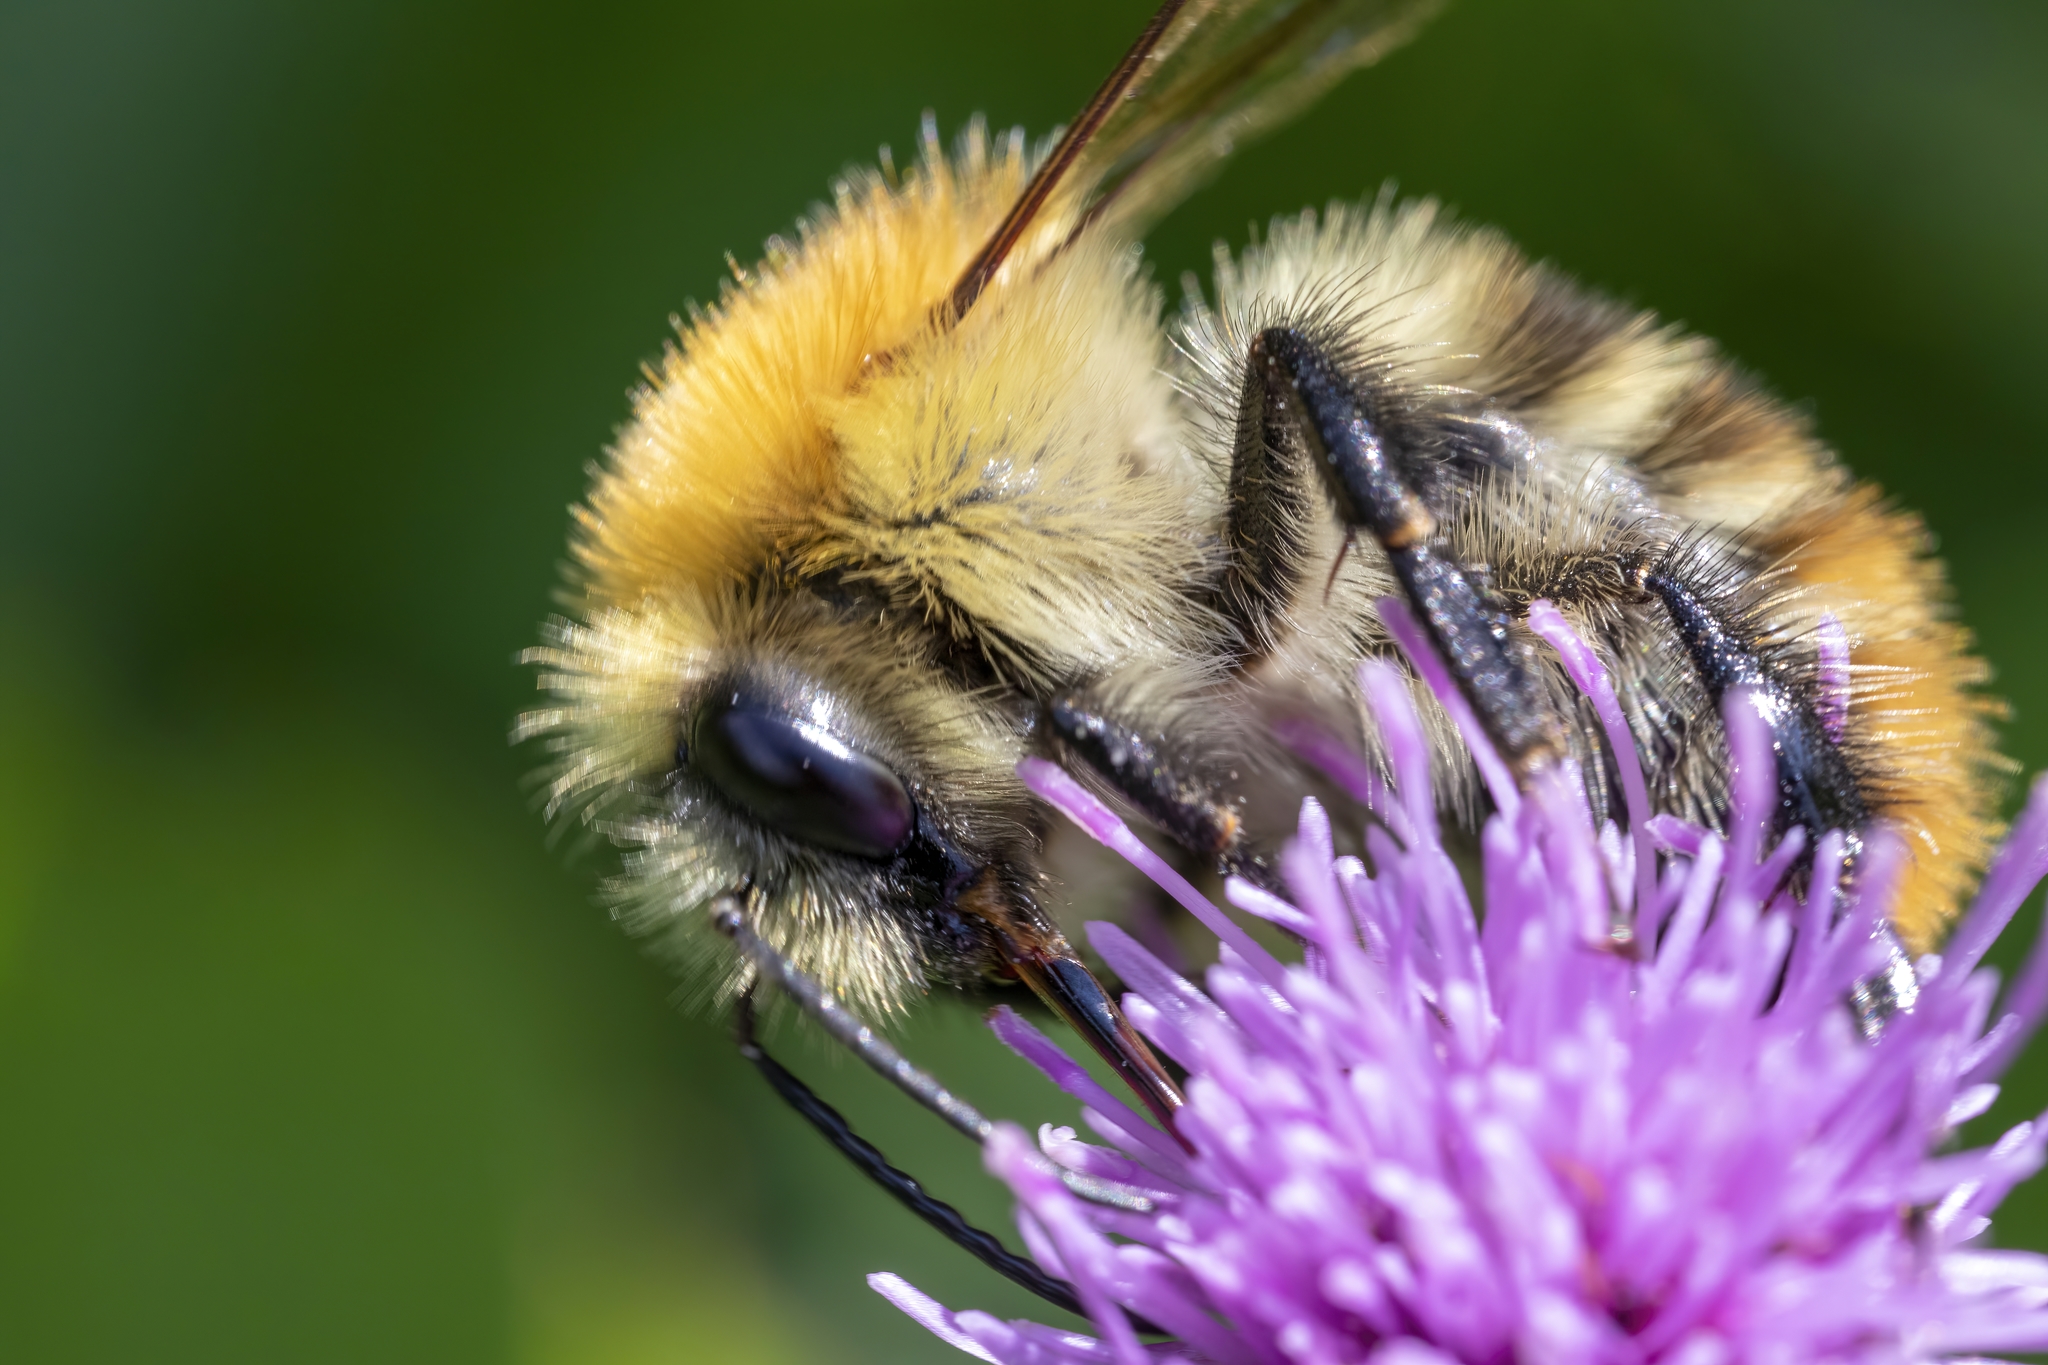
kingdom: Animalia
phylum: Arthropoda
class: Insecta
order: Hymenoptera
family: Apidae
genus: Bombus
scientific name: Bombus pascuorum
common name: Common carder bee
